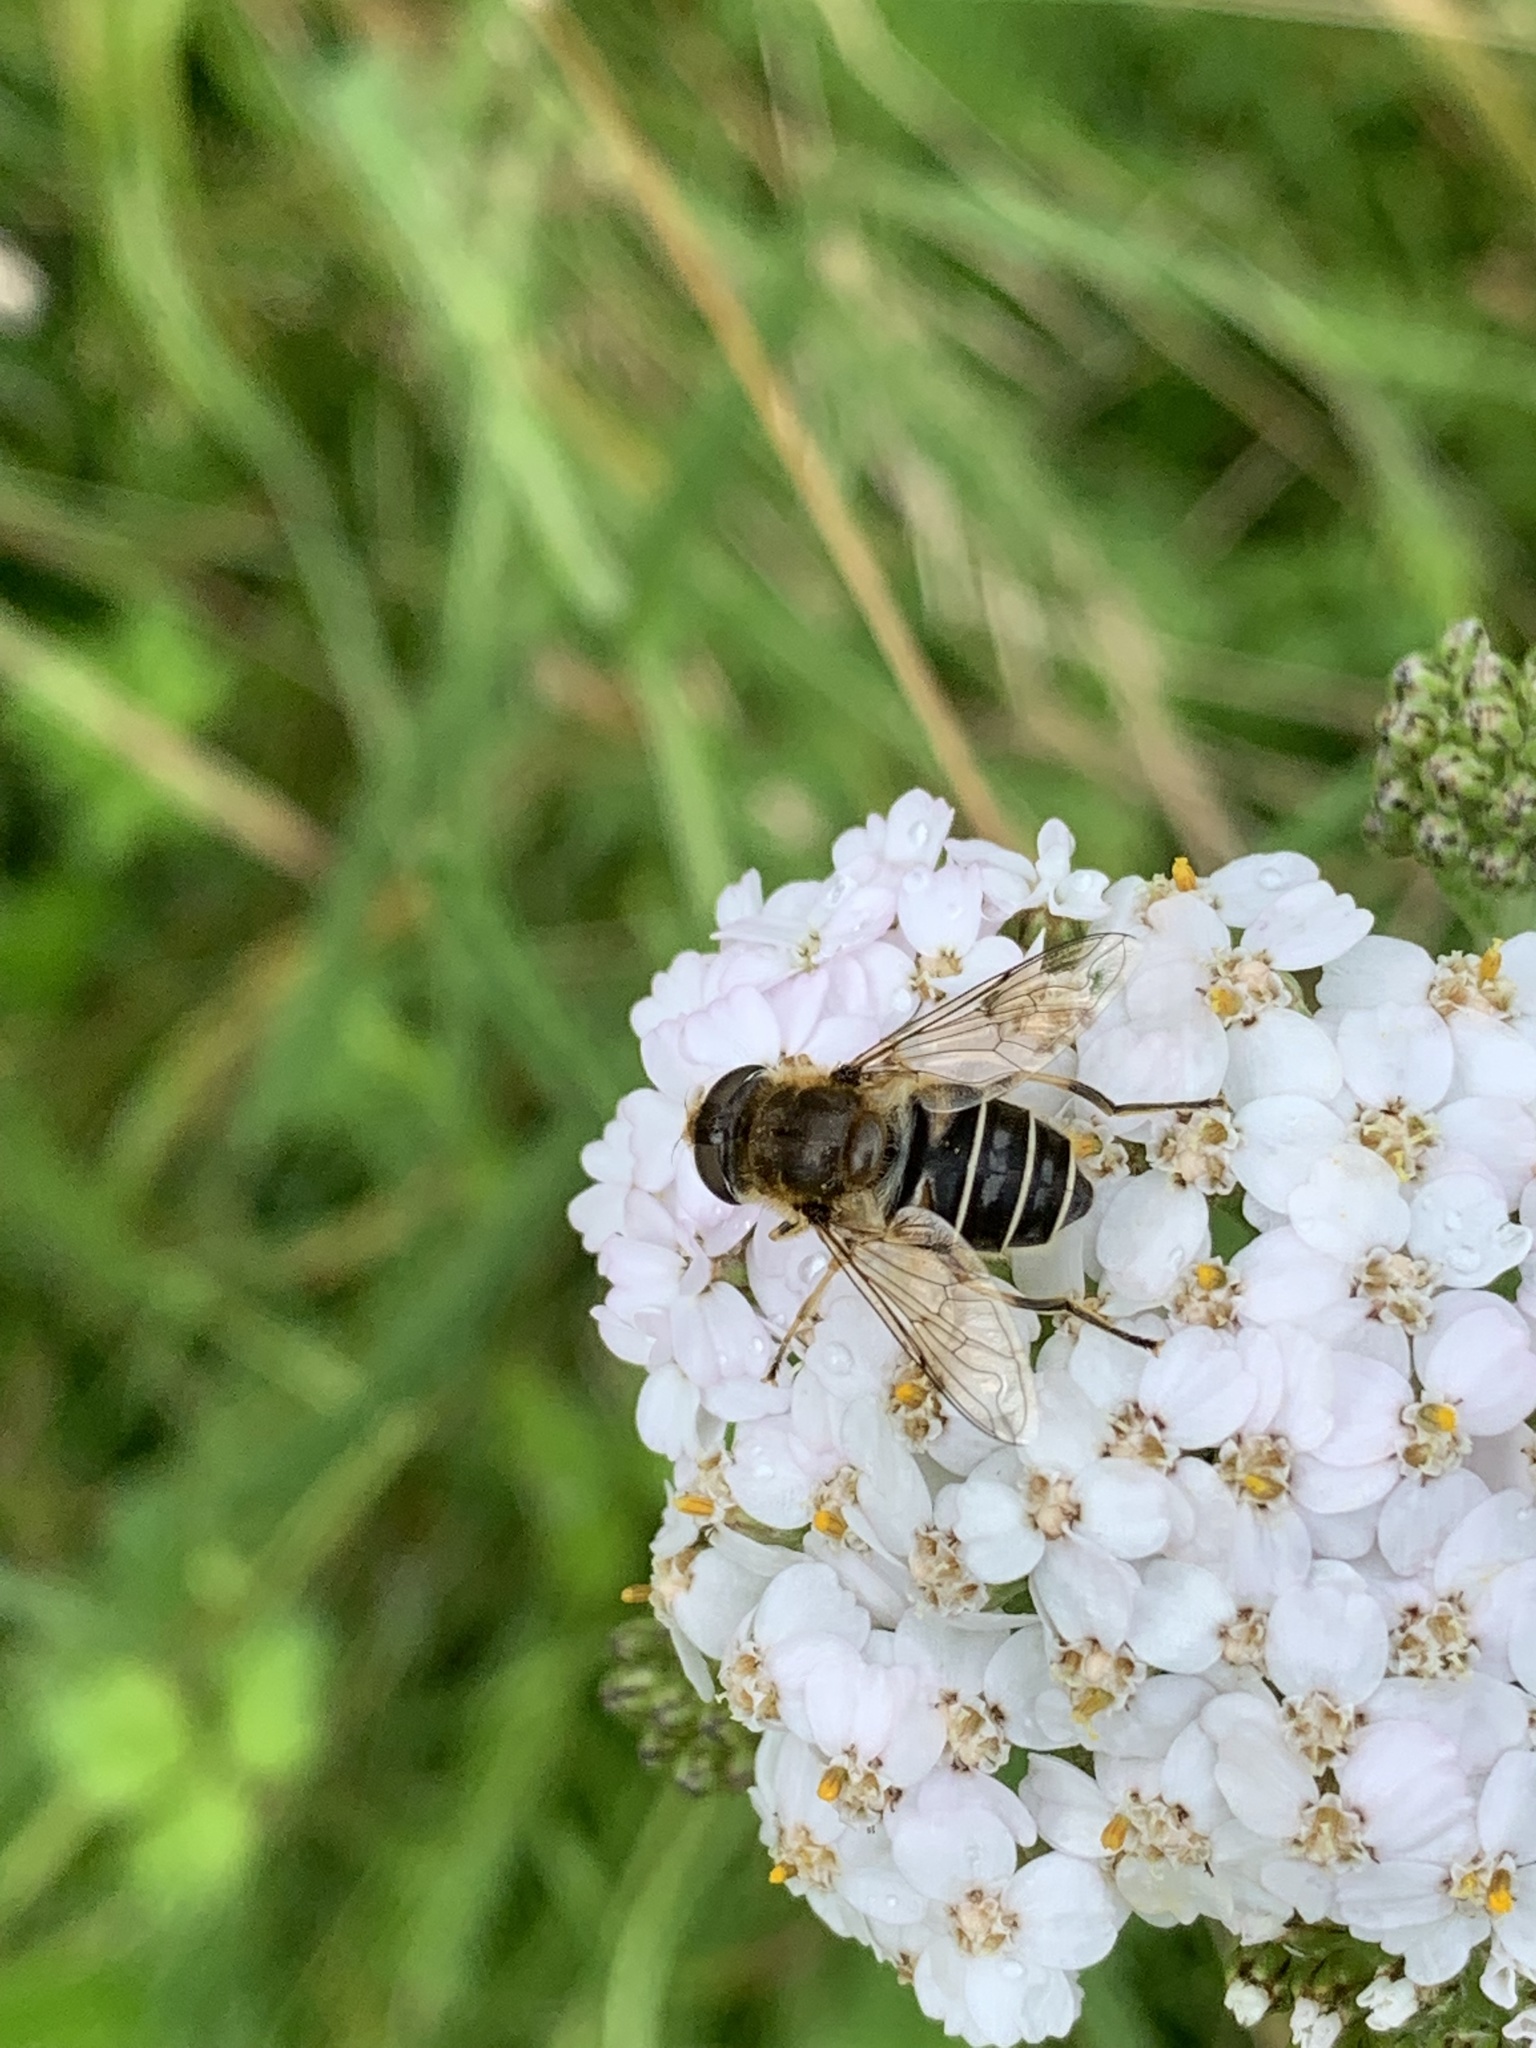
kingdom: Animalia
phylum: Arthropoda
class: Insecta
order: Diptera
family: Syrphidae
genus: Eristalis
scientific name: Eristalis nemorum
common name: Orange-spined drone fly
